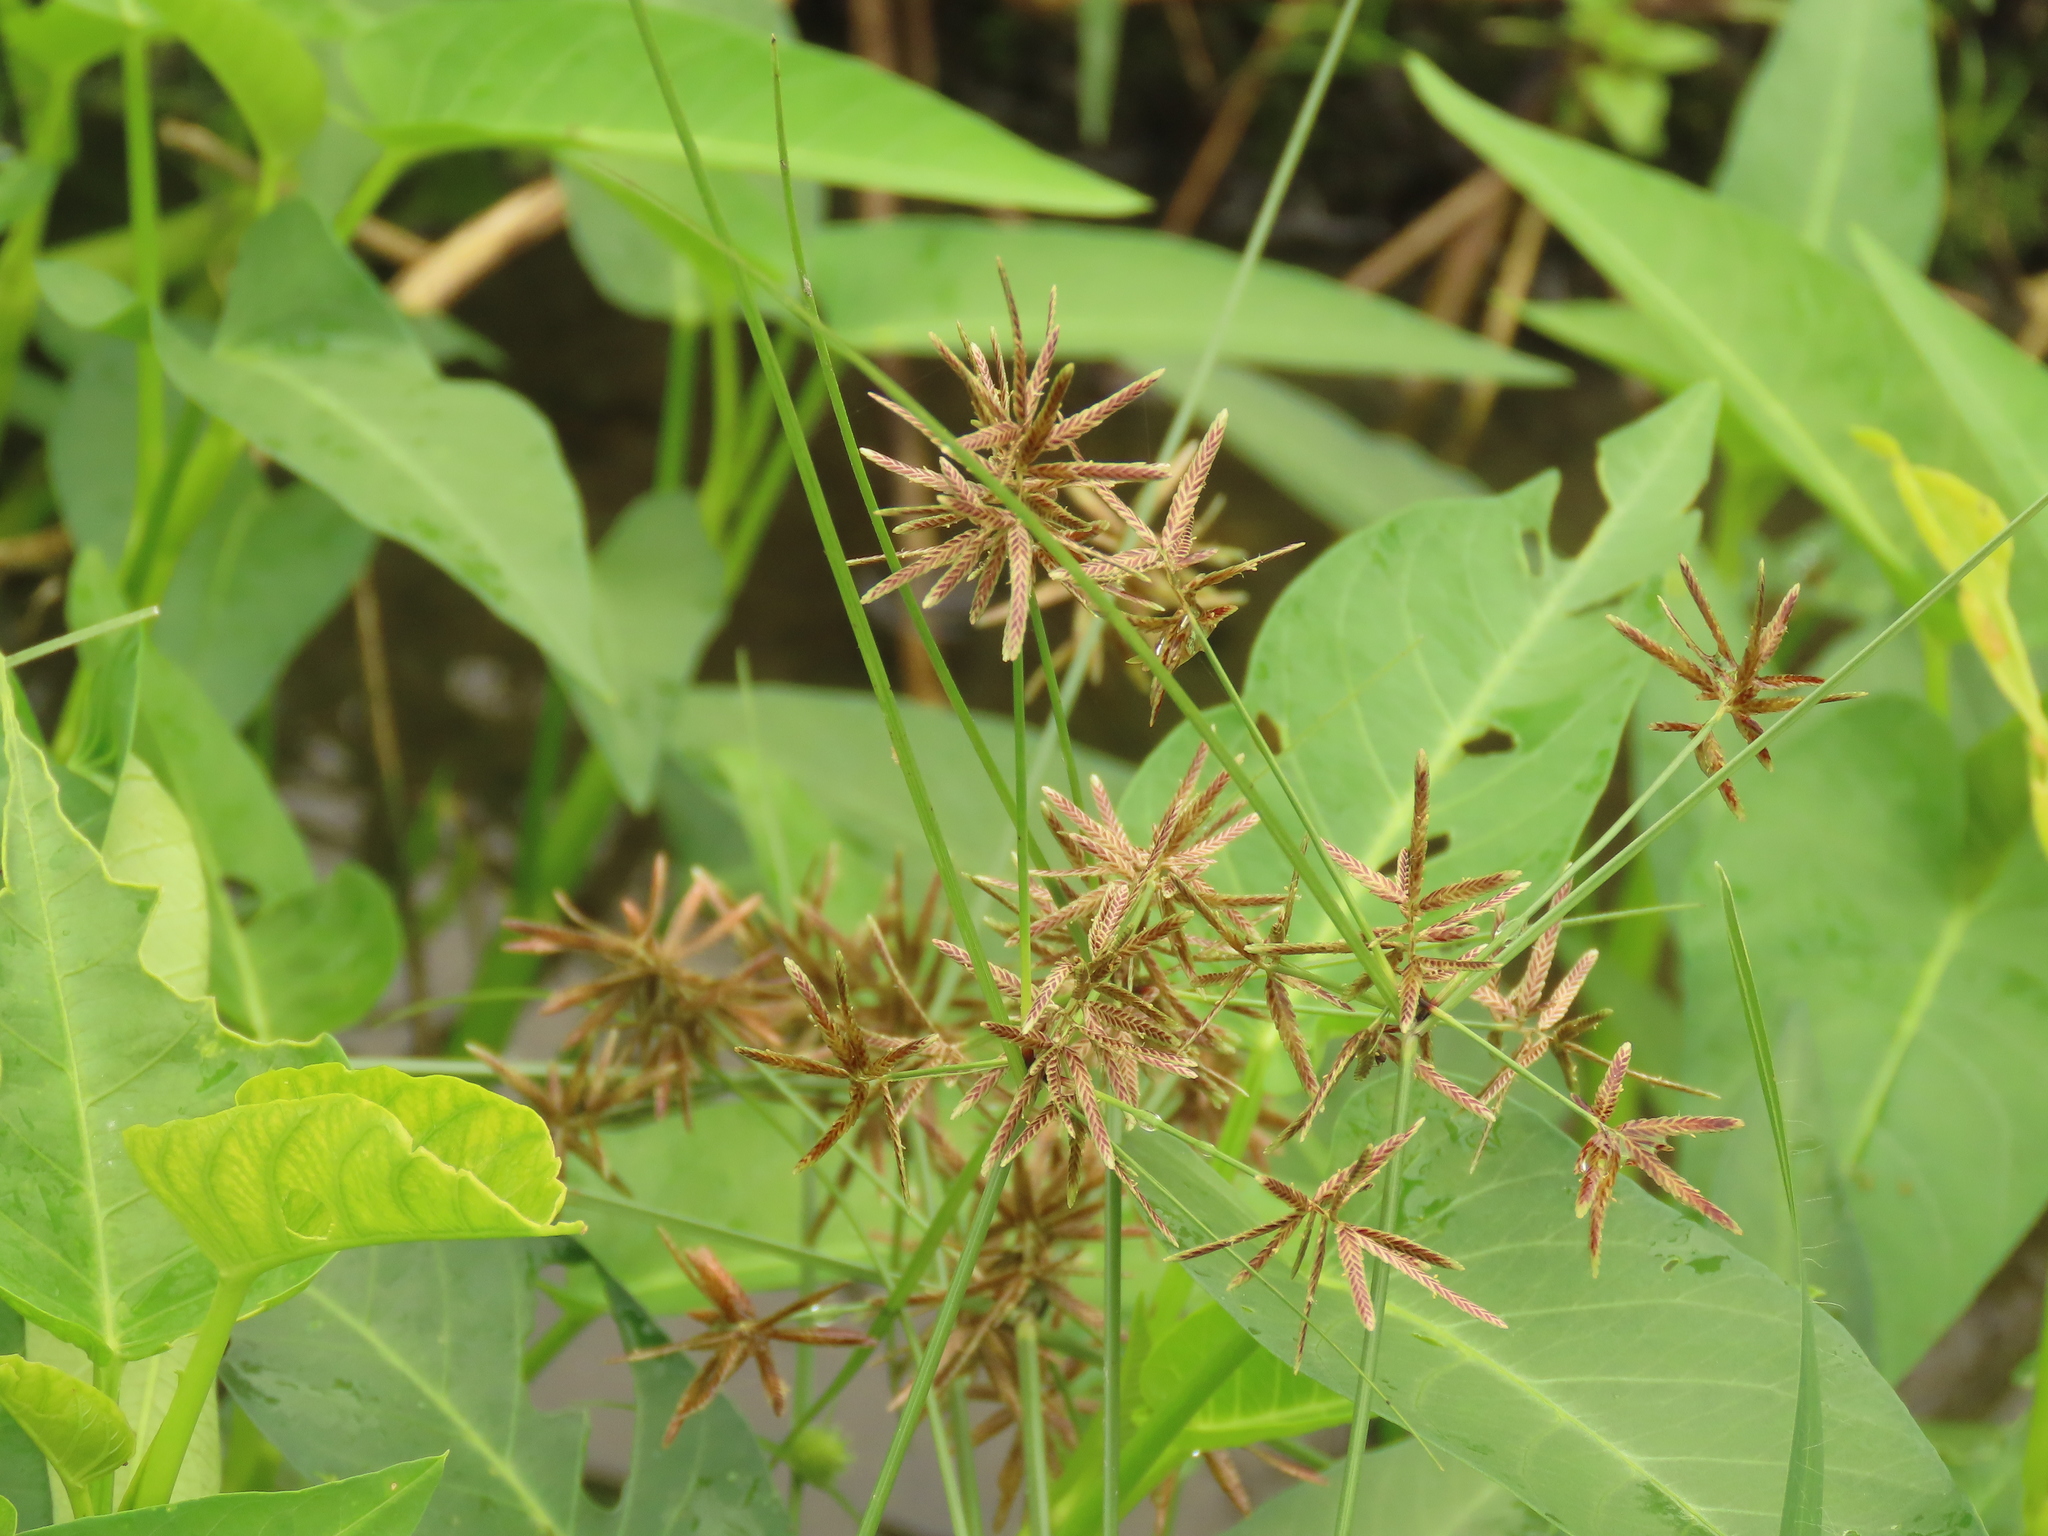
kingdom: Plantae
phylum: Tracheophyta
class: Liliopsida
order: Poales
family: Cyperaceae
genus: Cyperus
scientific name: Cyperus flavidus
